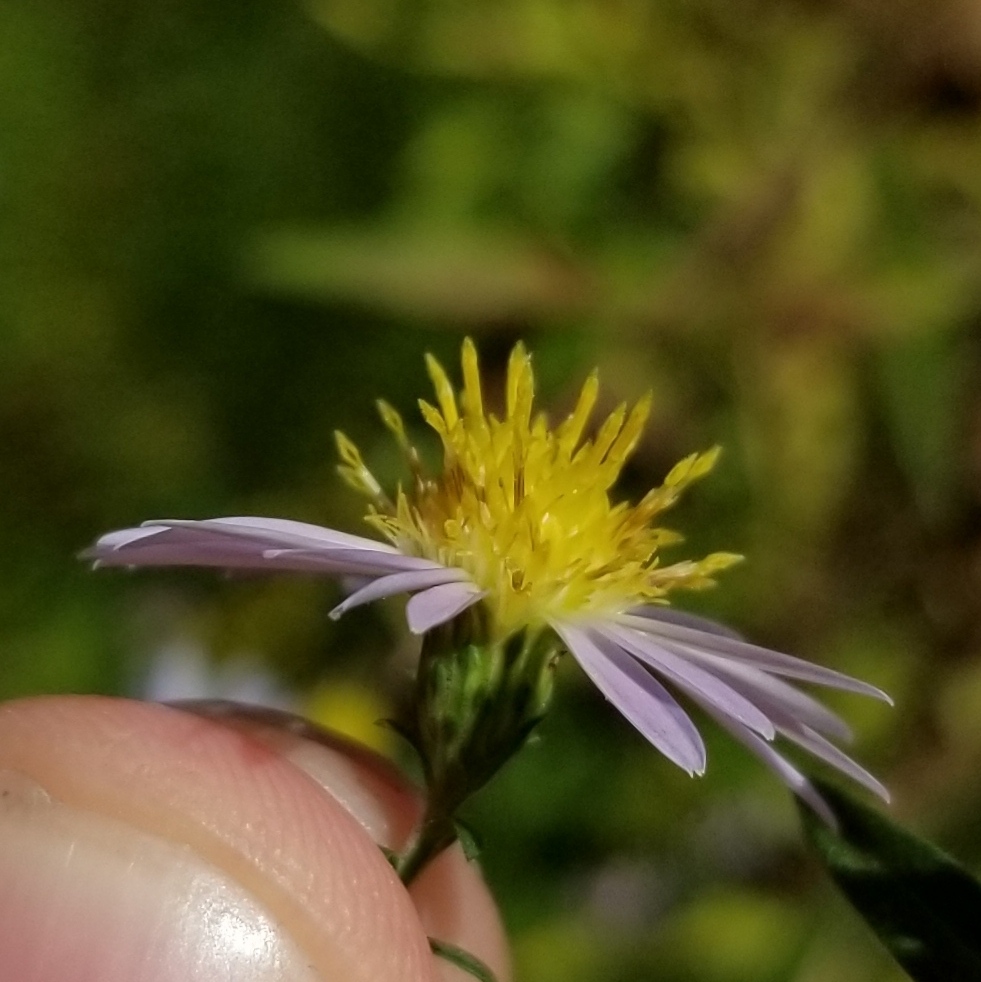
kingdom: Plantae
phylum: Tracheophyta
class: Magnoliopsida
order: Asterales
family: Asteraceae
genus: Symphyotrichum
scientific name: Symphyotrichum novi-belgii
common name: Michaelmas daisy
